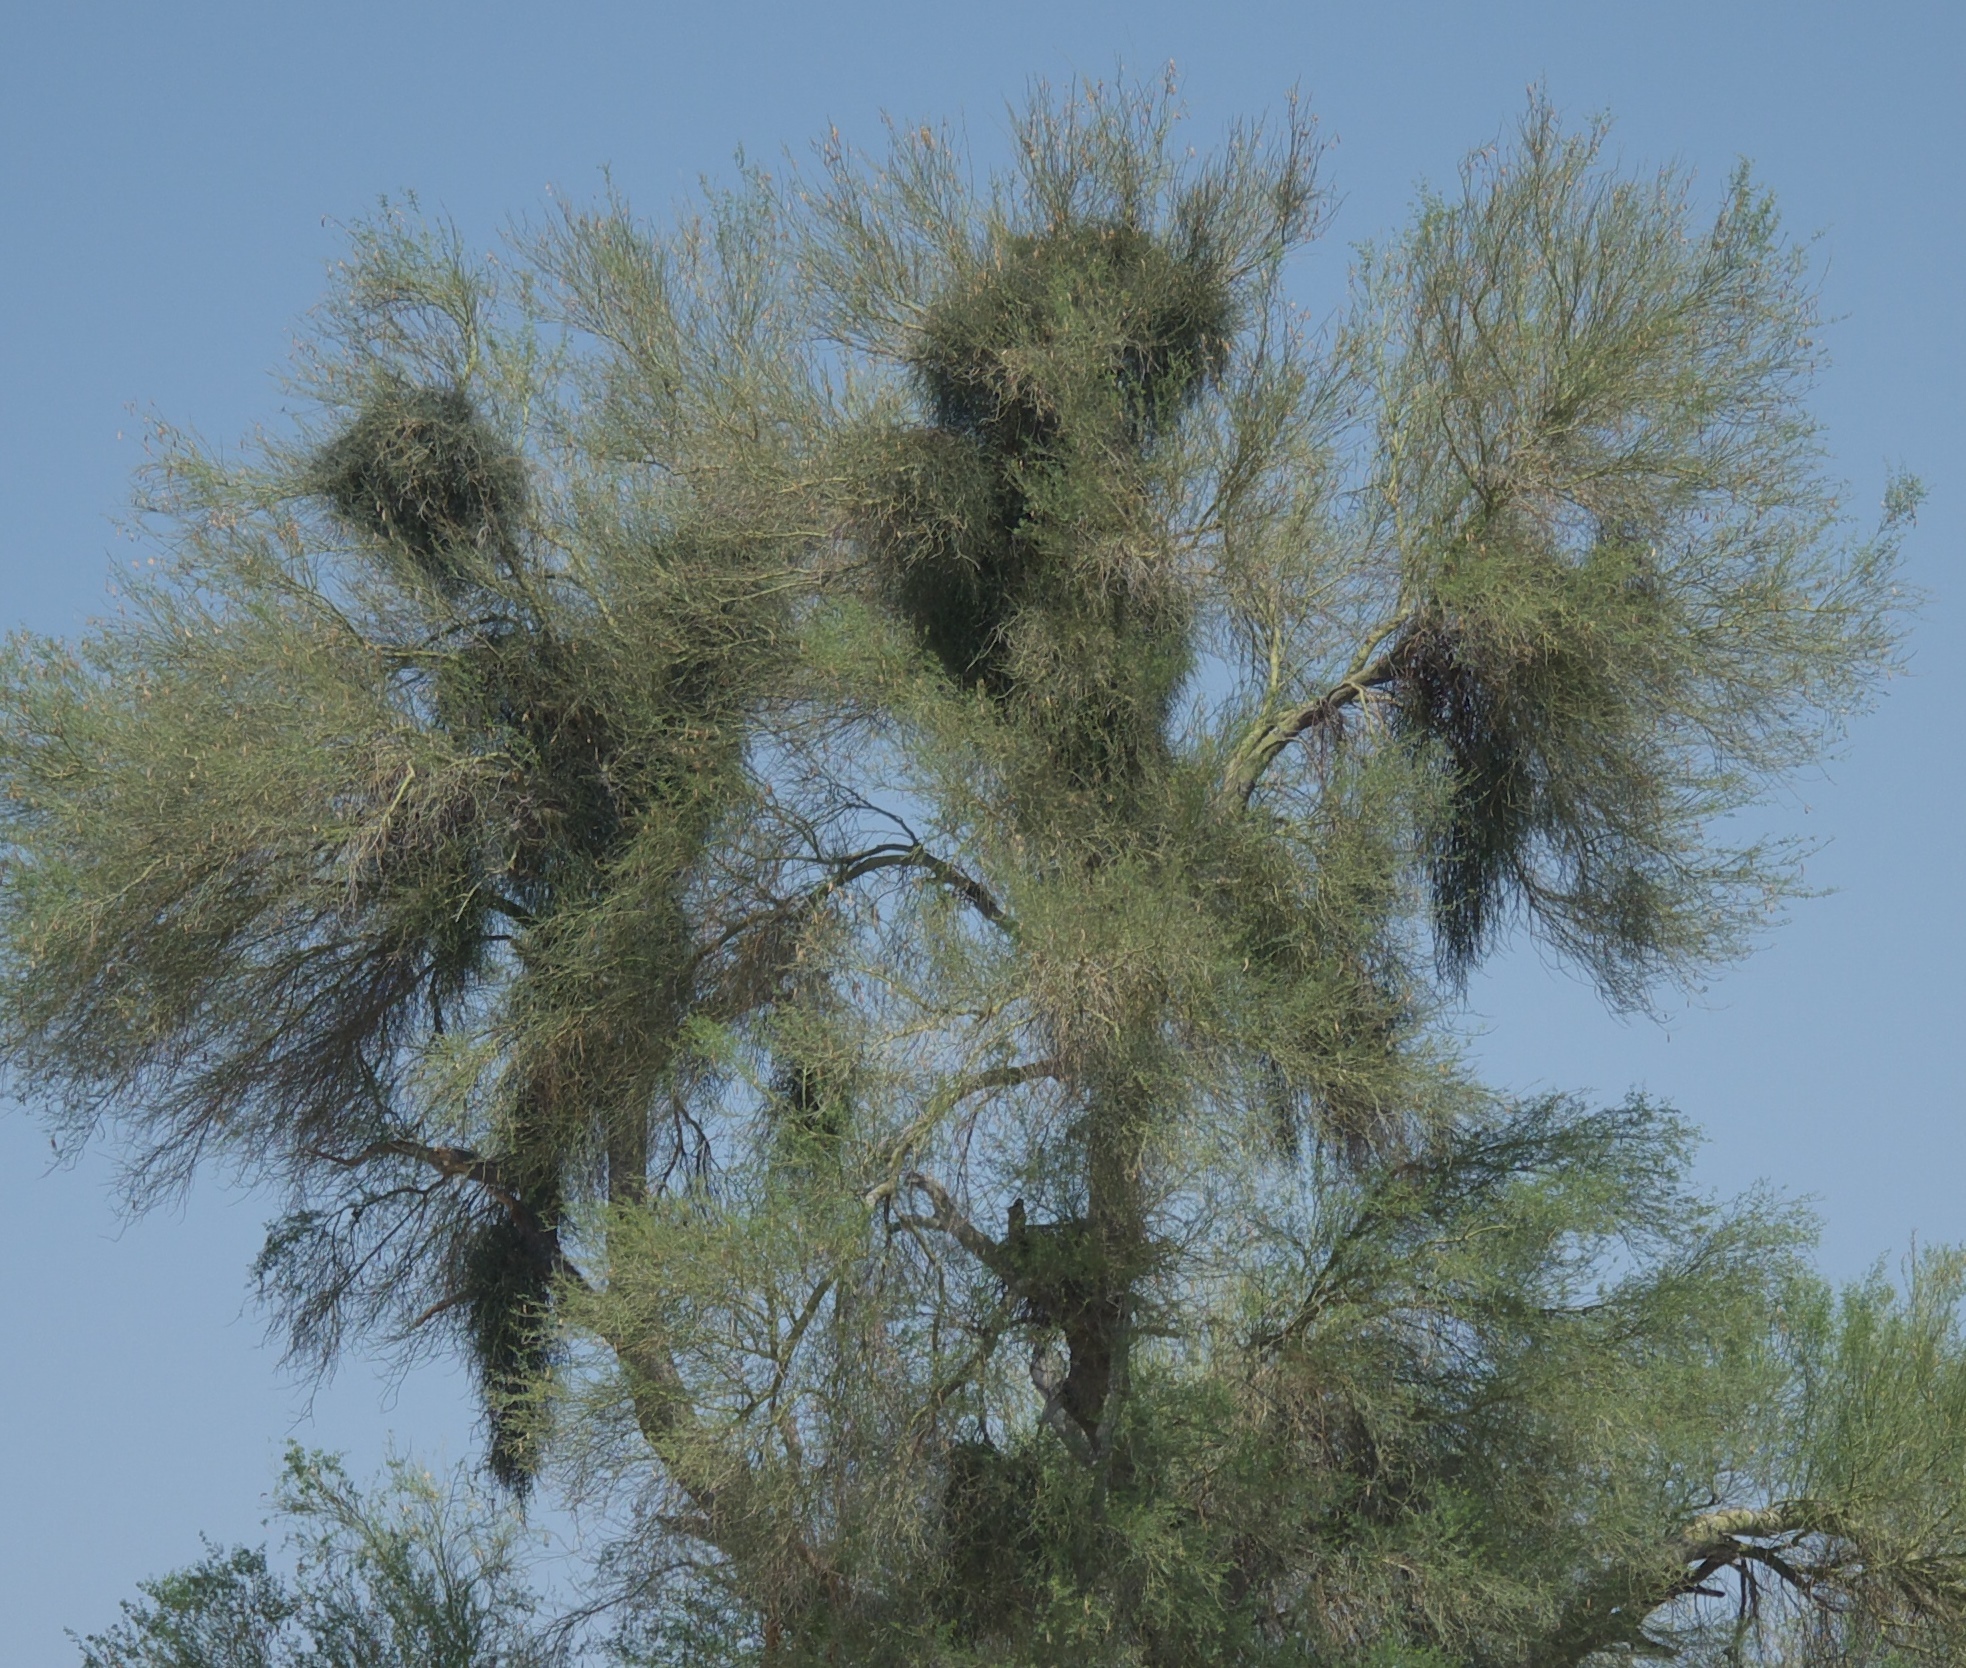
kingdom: Plantae
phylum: Tracheophyta
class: Magnoliopsida
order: Santalales
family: Viscaceae
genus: Phoradendron
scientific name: Phoradendron californicum
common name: Acacia mistletoe
